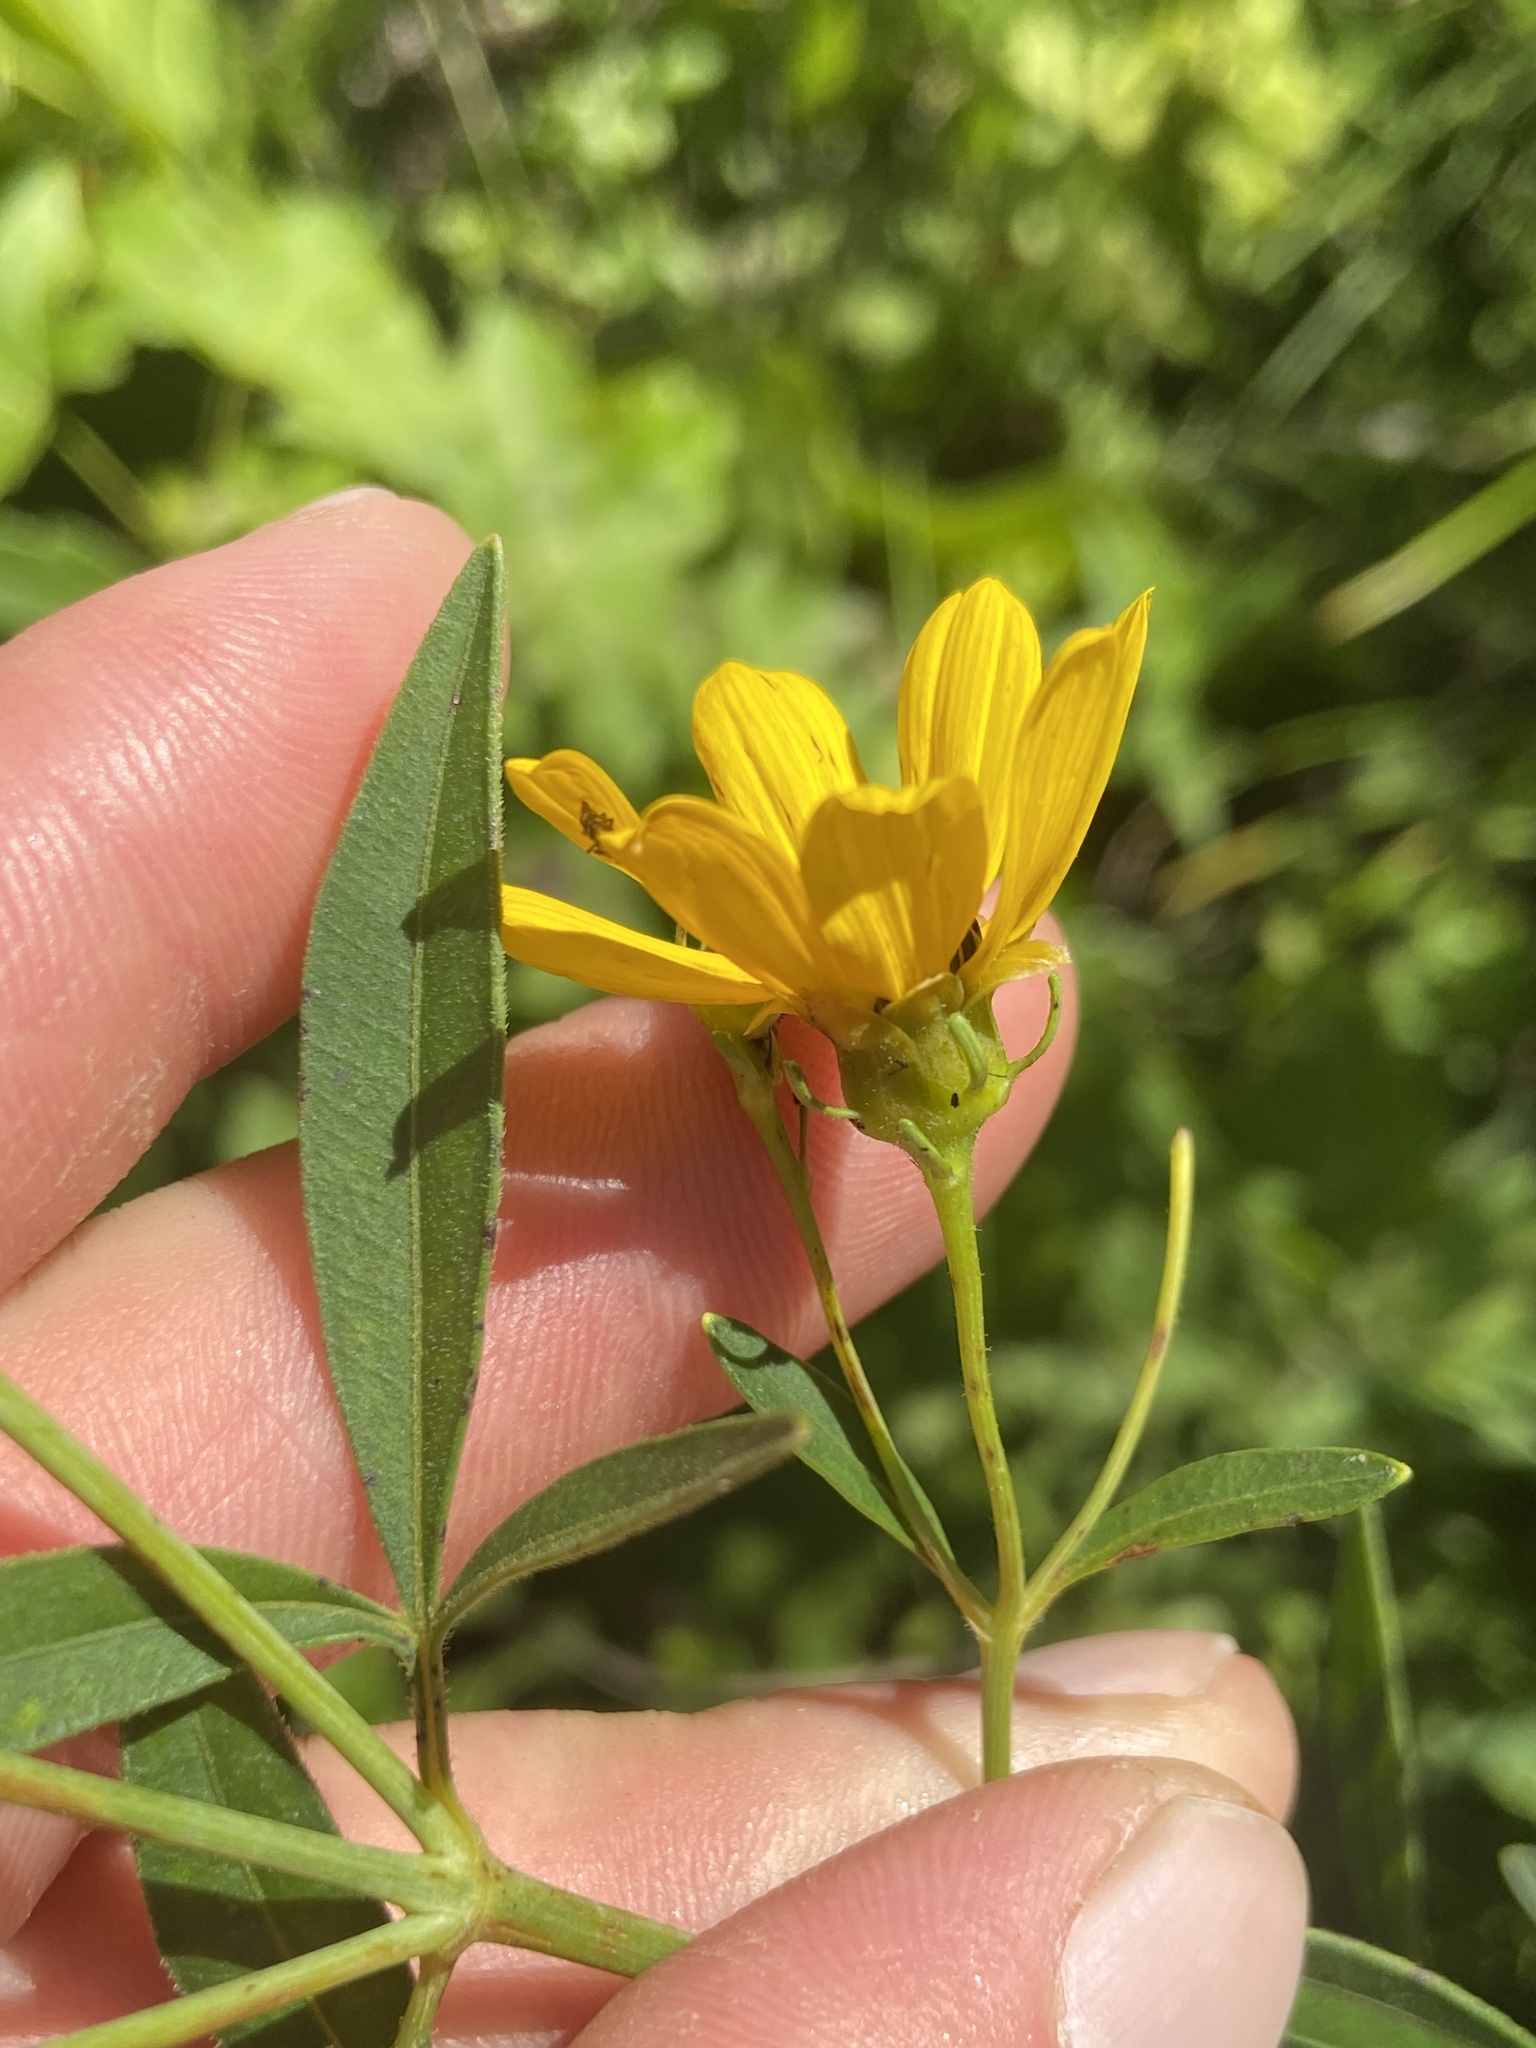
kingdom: Plantae
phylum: Tracheophyta
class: Magnoliopsida
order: Asterales
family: Asteraceae
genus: Coreopsis
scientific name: Coreopsis tripteris
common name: Tall coreopsis
